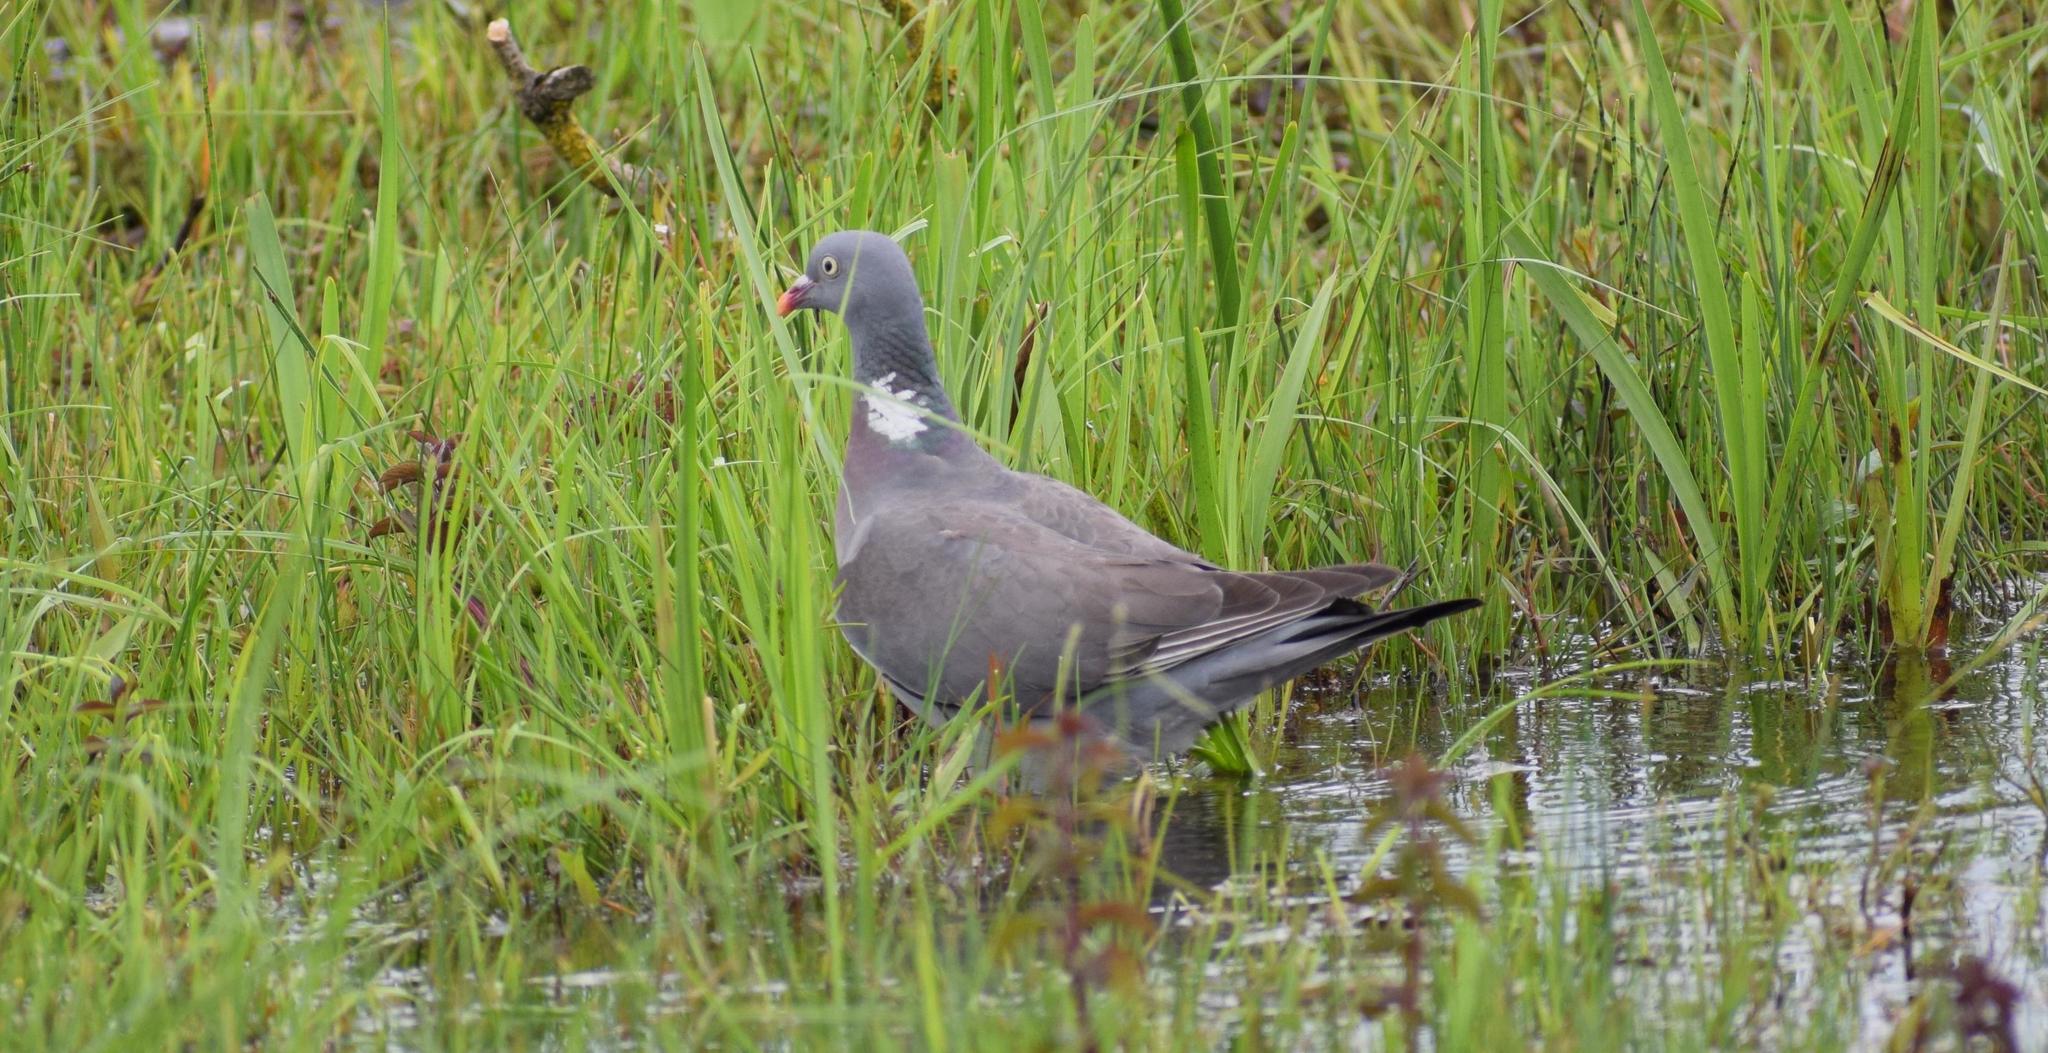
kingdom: Animalia
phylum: Chordata
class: Aves
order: Columbiformes
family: Columbidae
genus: Columba
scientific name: Columba palumbus
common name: Common wood pigeon
